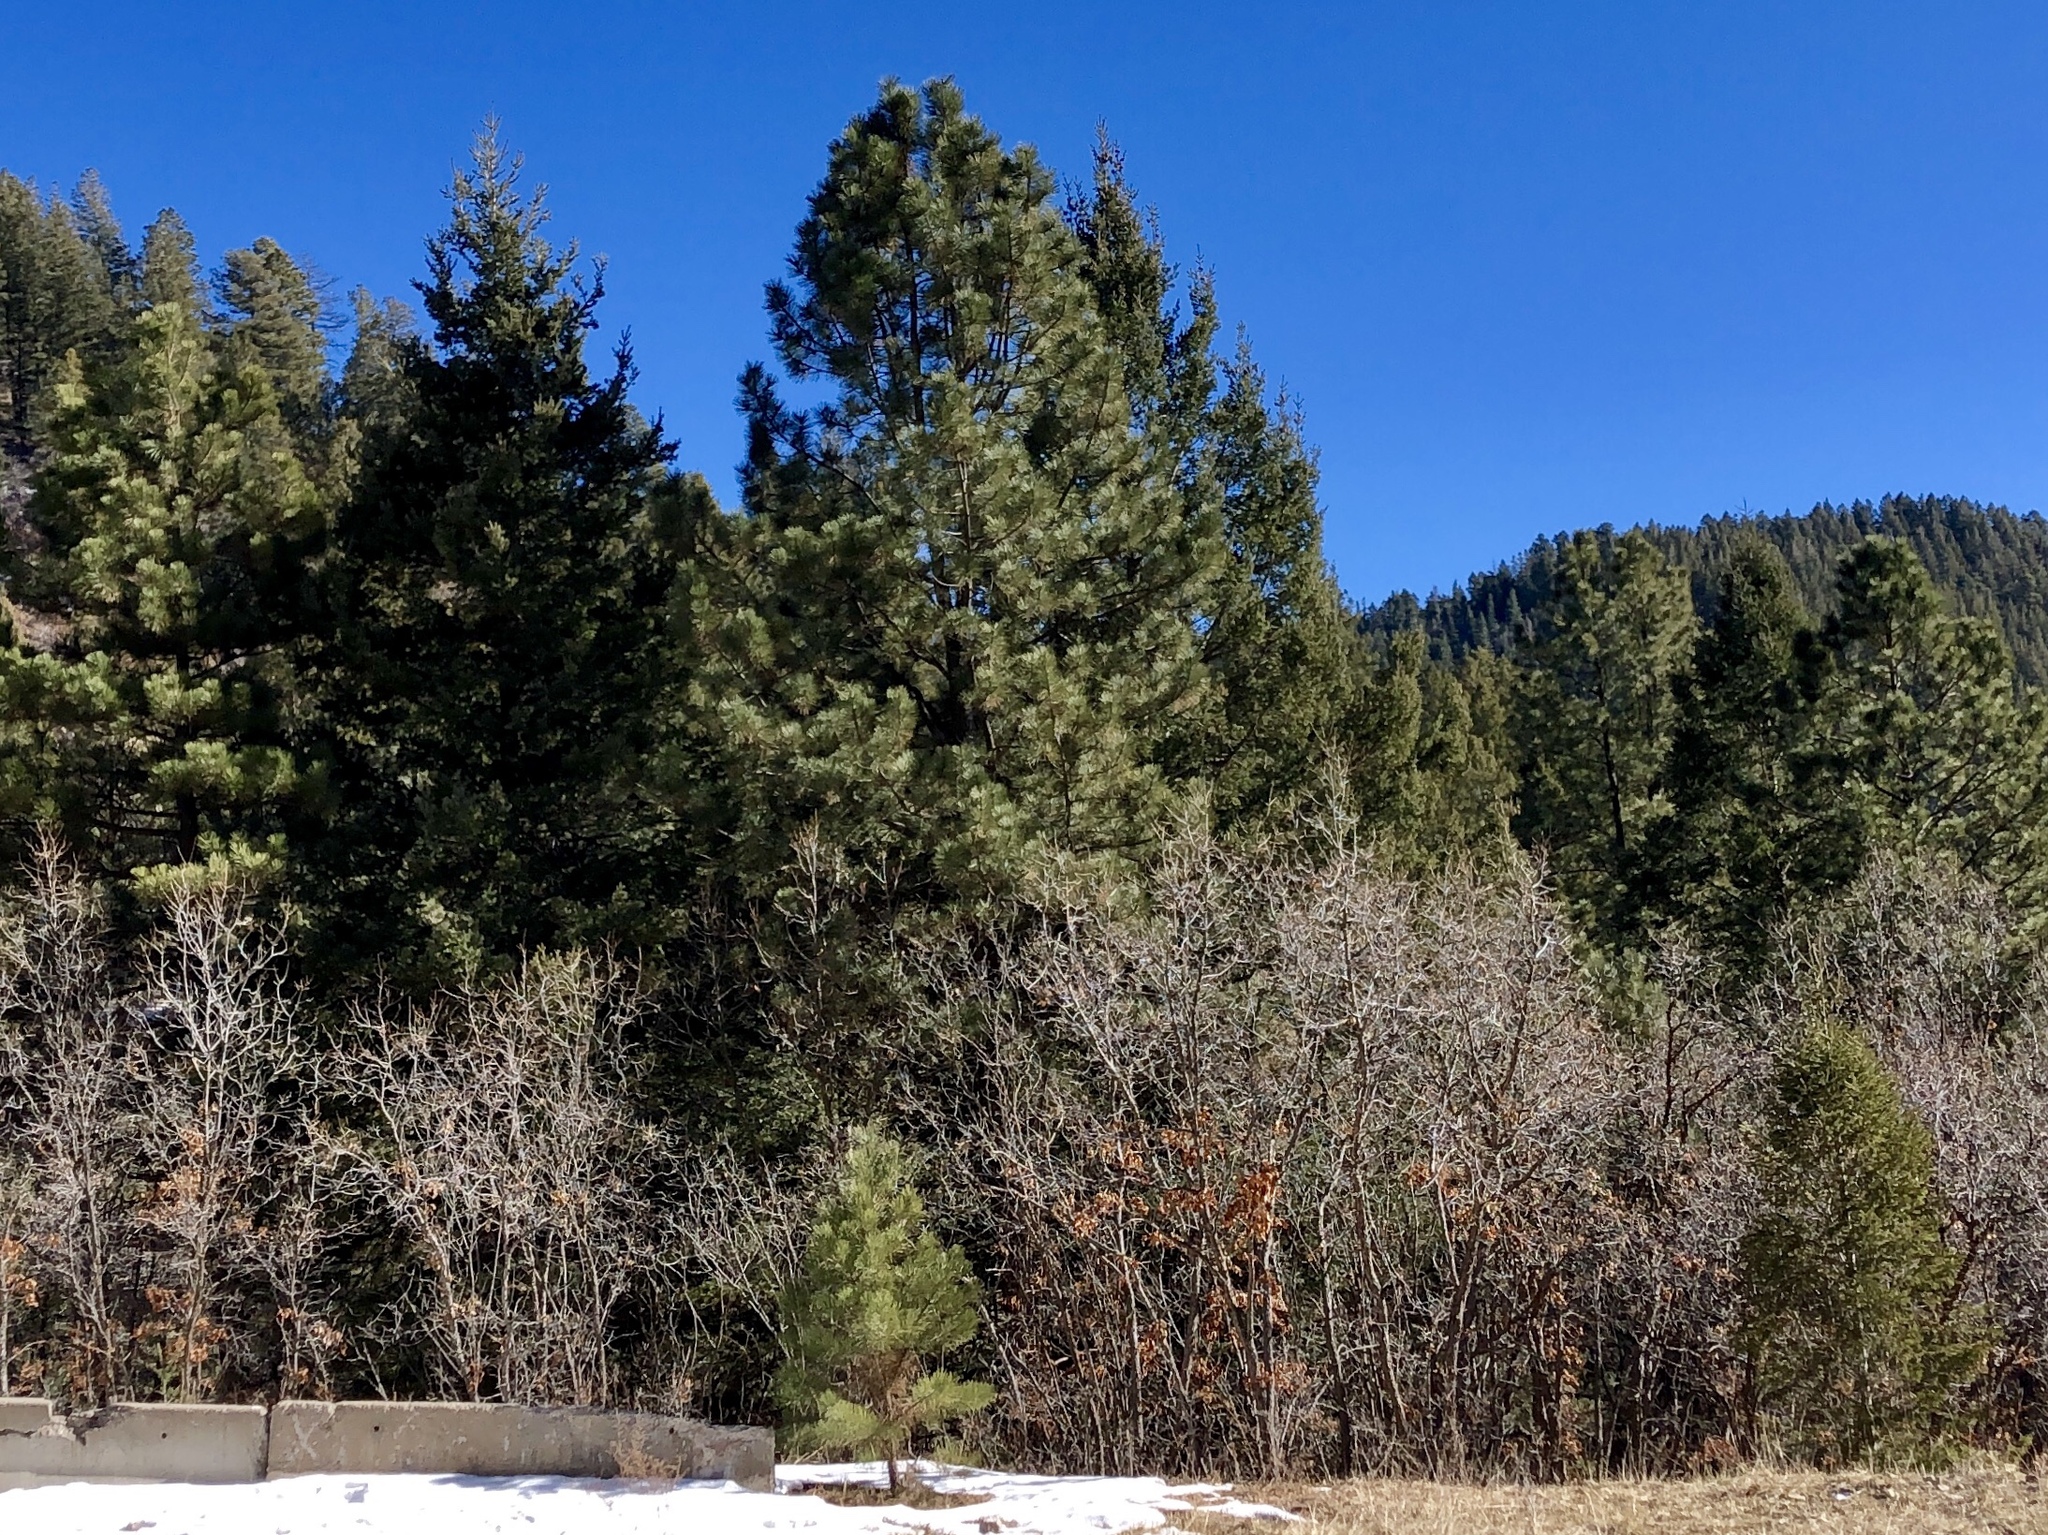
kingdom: Plantae
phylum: Tracheophyta
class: Pinopsida
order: Pinales
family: Pinaceae
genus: Pinus
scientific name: Pinus ponderosa
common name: Western yellow-pine
